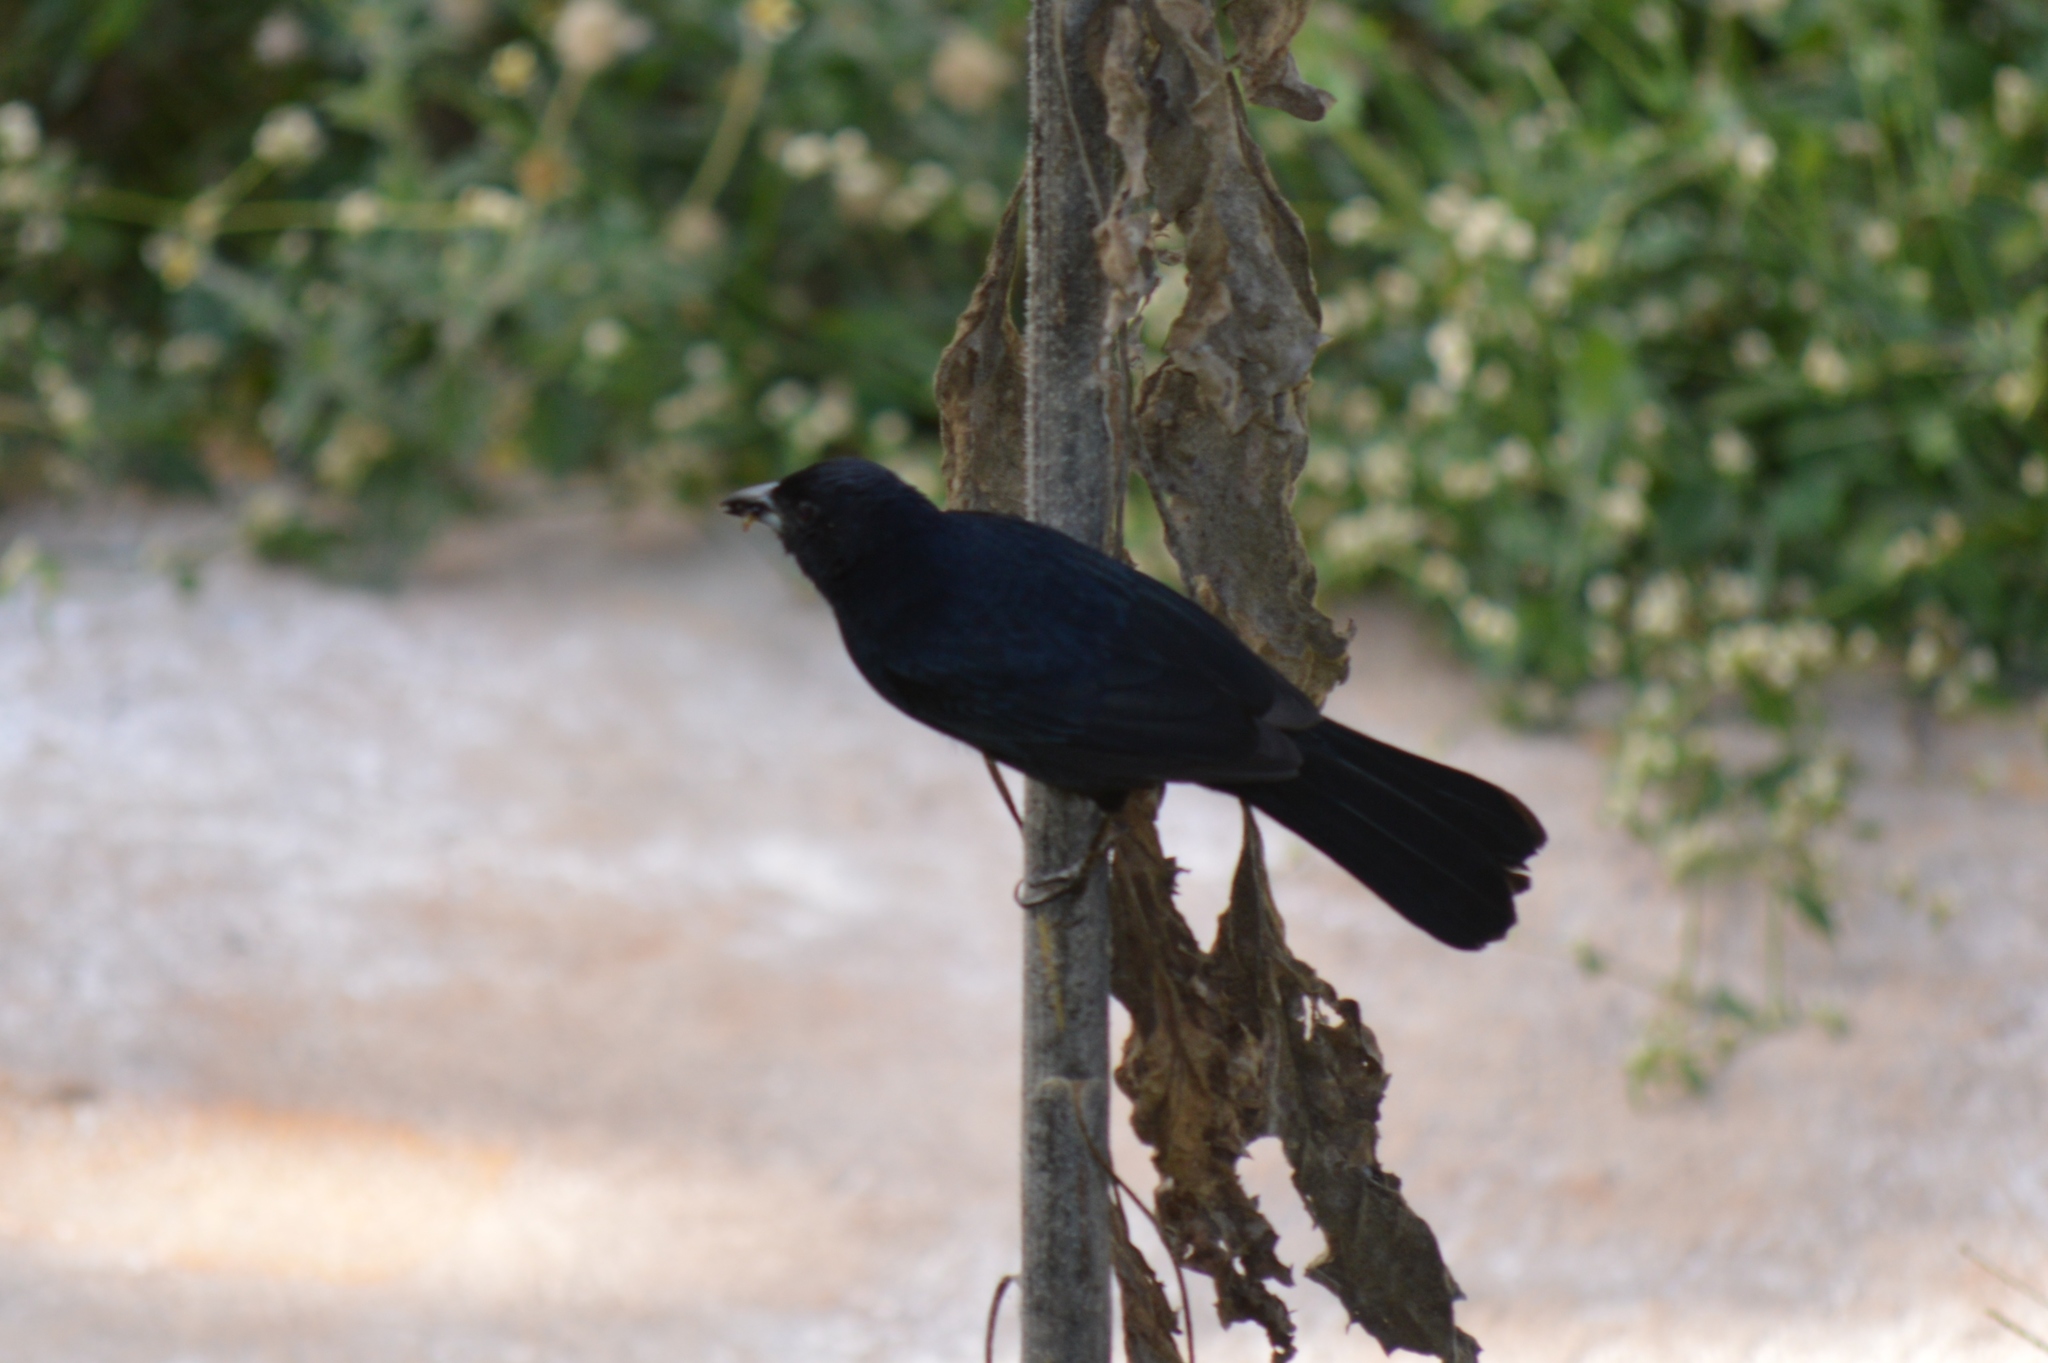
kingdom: Animalia
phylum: Chordata
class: Aves
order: Passeriformes
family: Thraupidae
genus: Tachyphonus
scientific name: Tachyphonus rufus
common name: White-lined tanager
